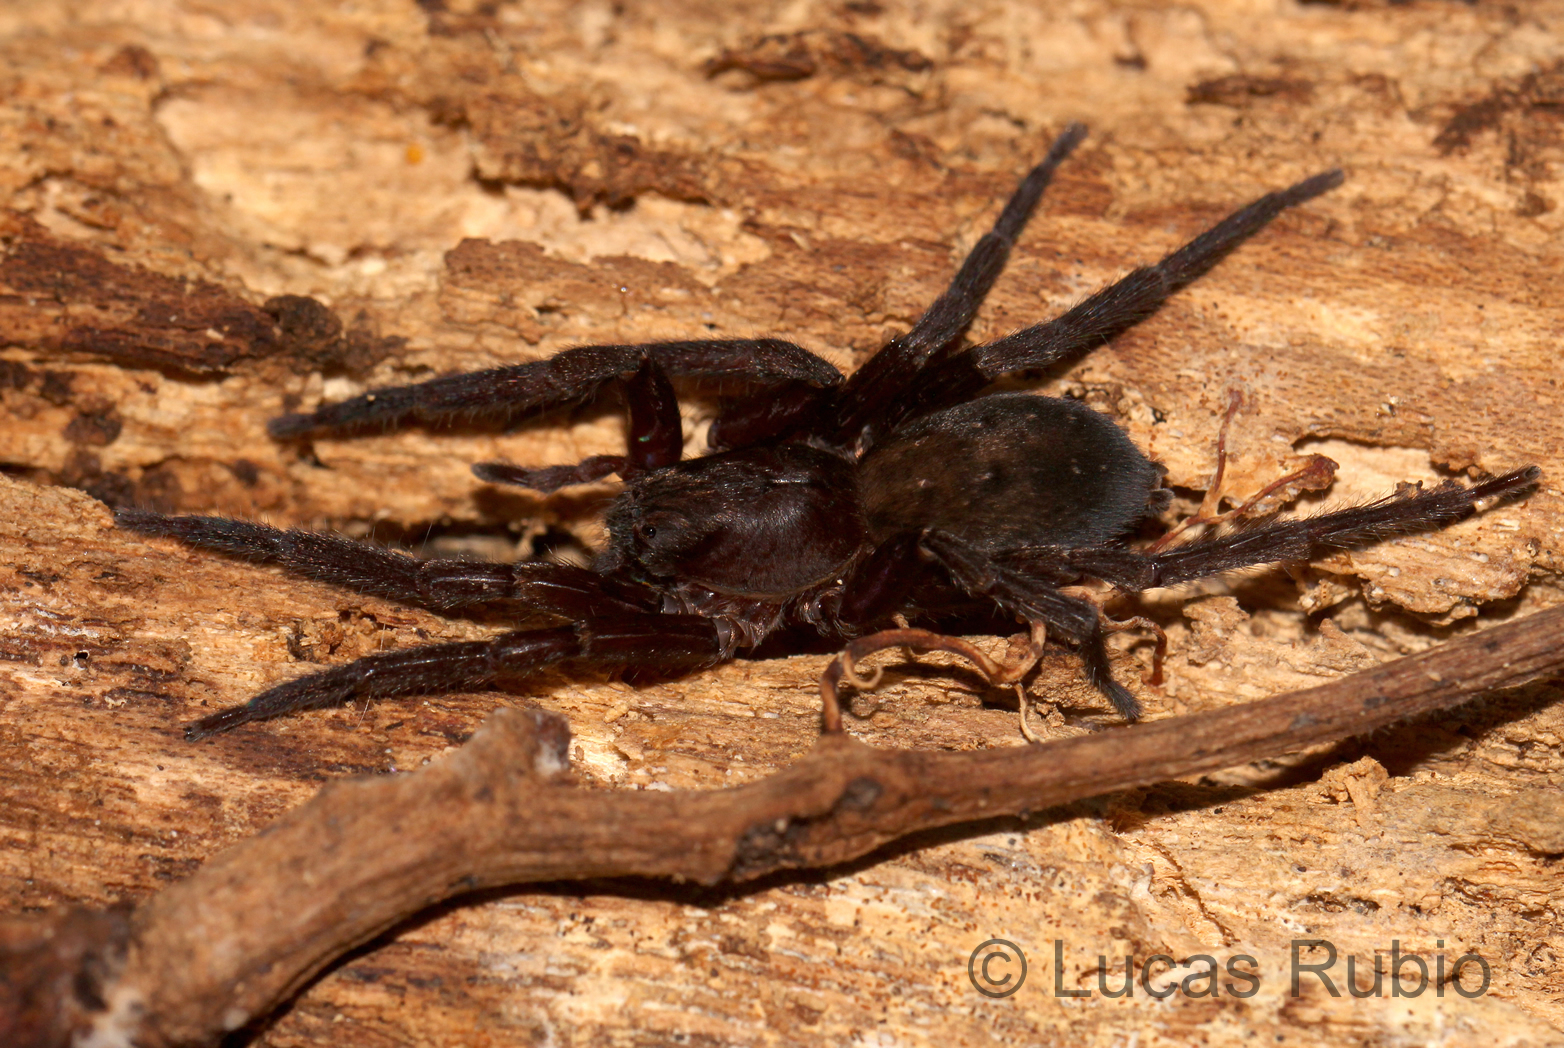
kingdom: Animalia
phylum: Arthropoda
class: Arachnida
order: Araneae
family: Ctenidae
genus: Asthenoctenus
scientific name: Asthenoctenus borellii
